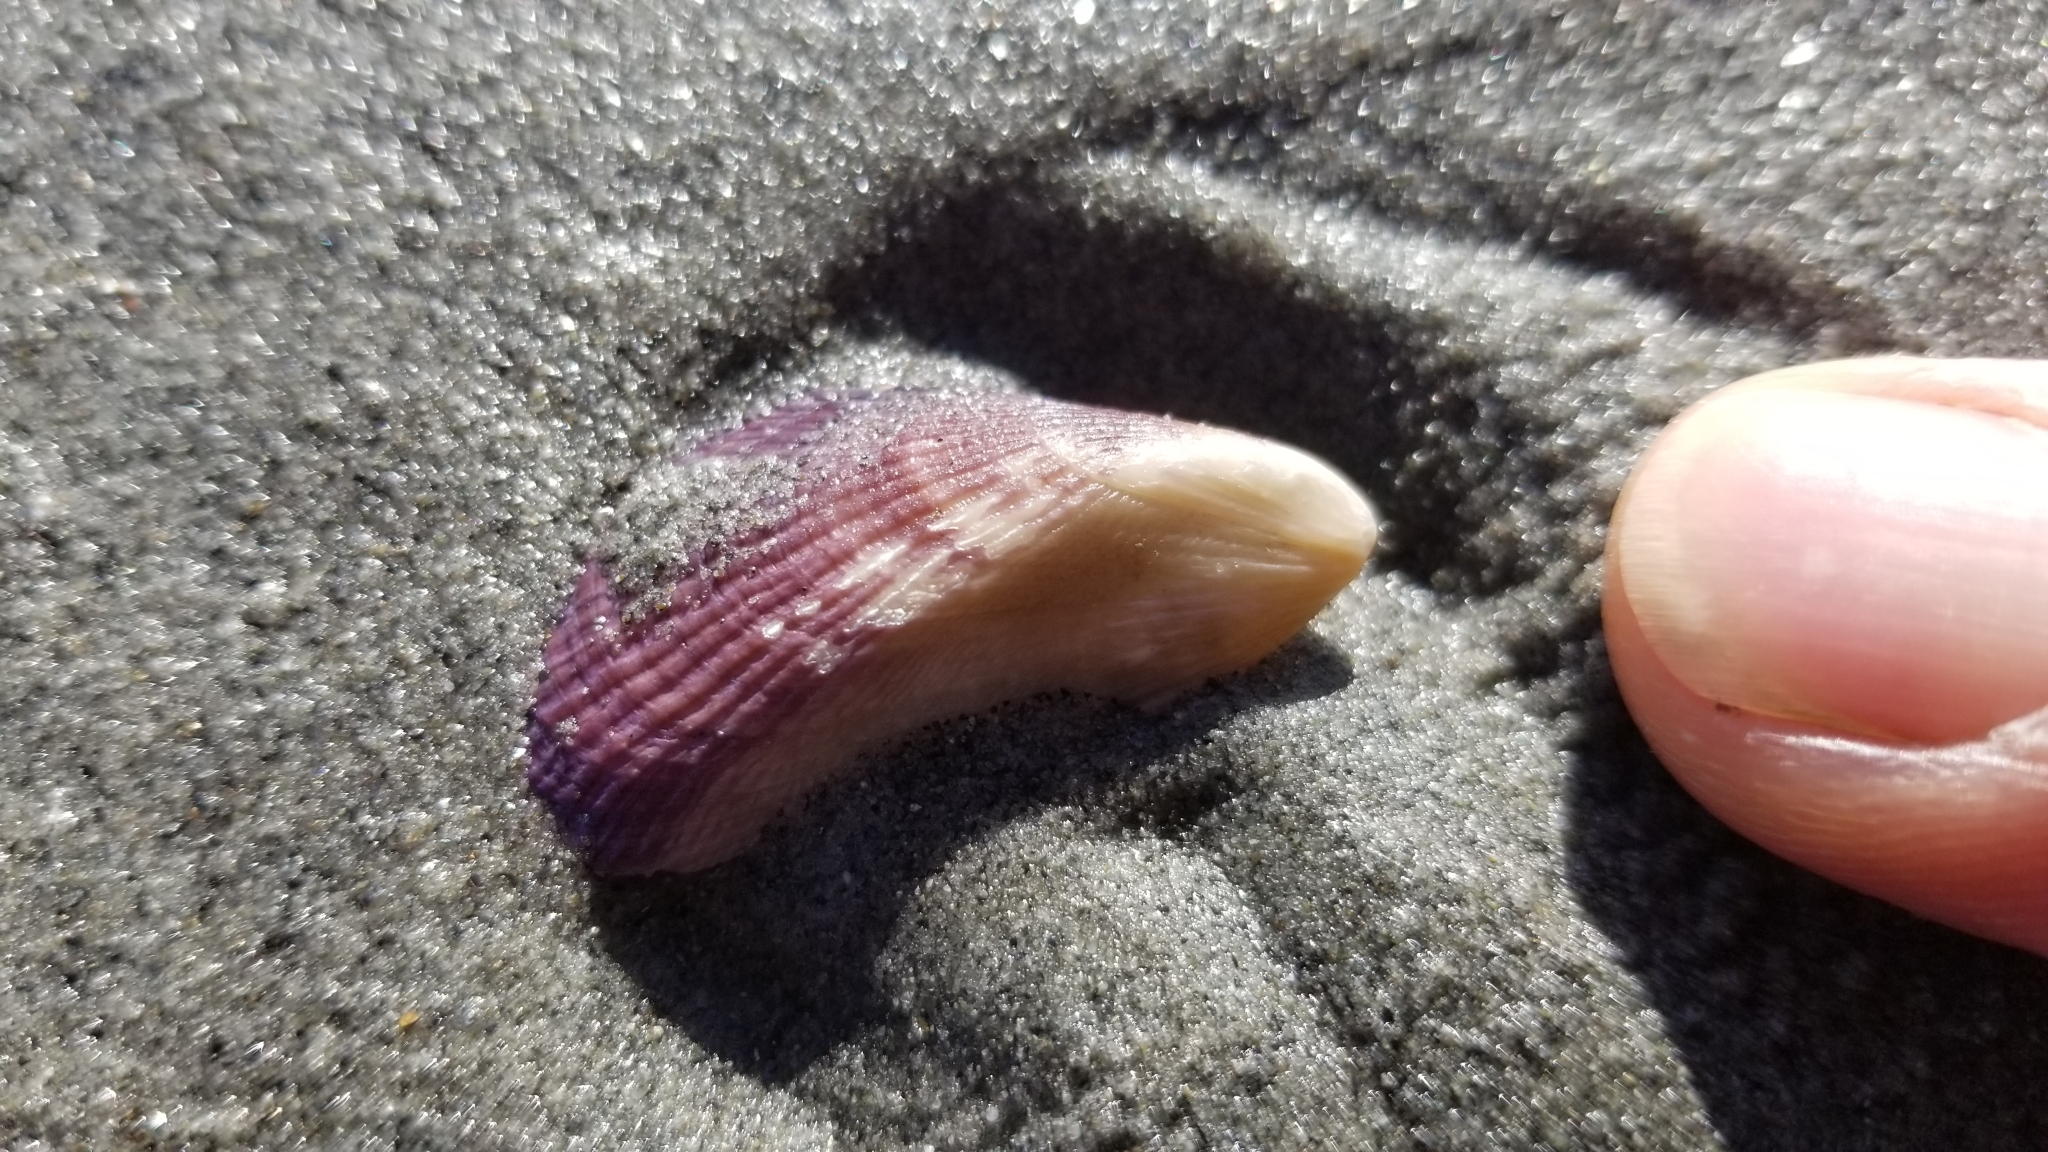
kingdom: Animalia
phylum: Mollusca
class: Bivalvia
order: Mytilida
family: Mytilidae
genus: Aulacomya
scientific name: Aulacomya maoriana
